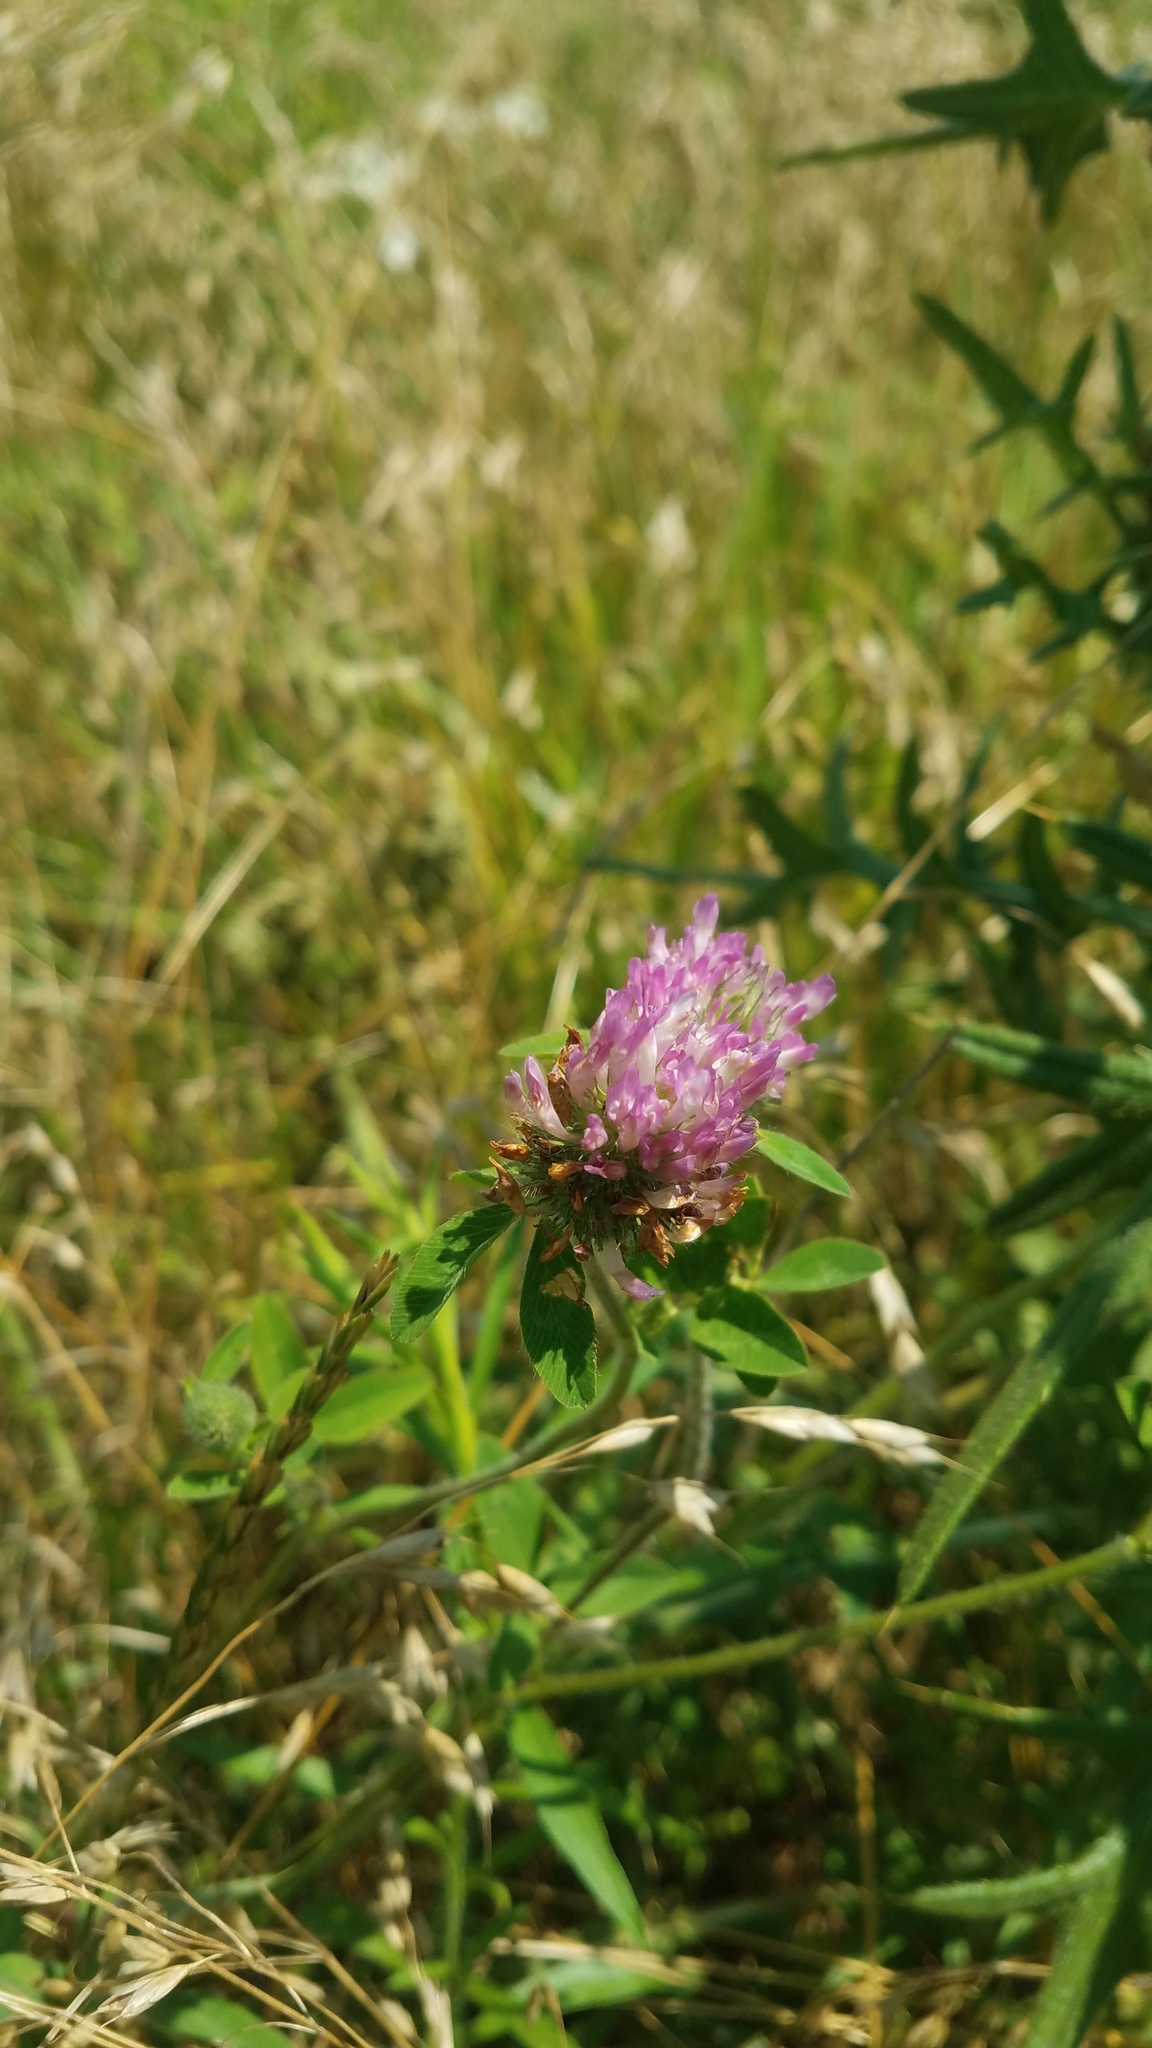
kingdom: Plantae
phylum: Tracheophyta
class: Magnoliopsida
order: Fabales
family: Fabaceae
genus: Trifolium
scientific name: Trifolium pratense
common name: Red clover
